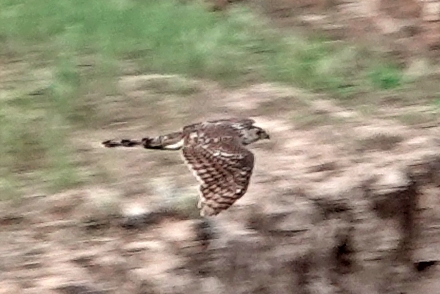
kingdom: Animalia
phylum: Chordata
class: Aves
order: Accipitriformes
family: Accipitridae
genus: Accipiter
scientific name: Accipiter cooperii
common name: Cooper's hawk
